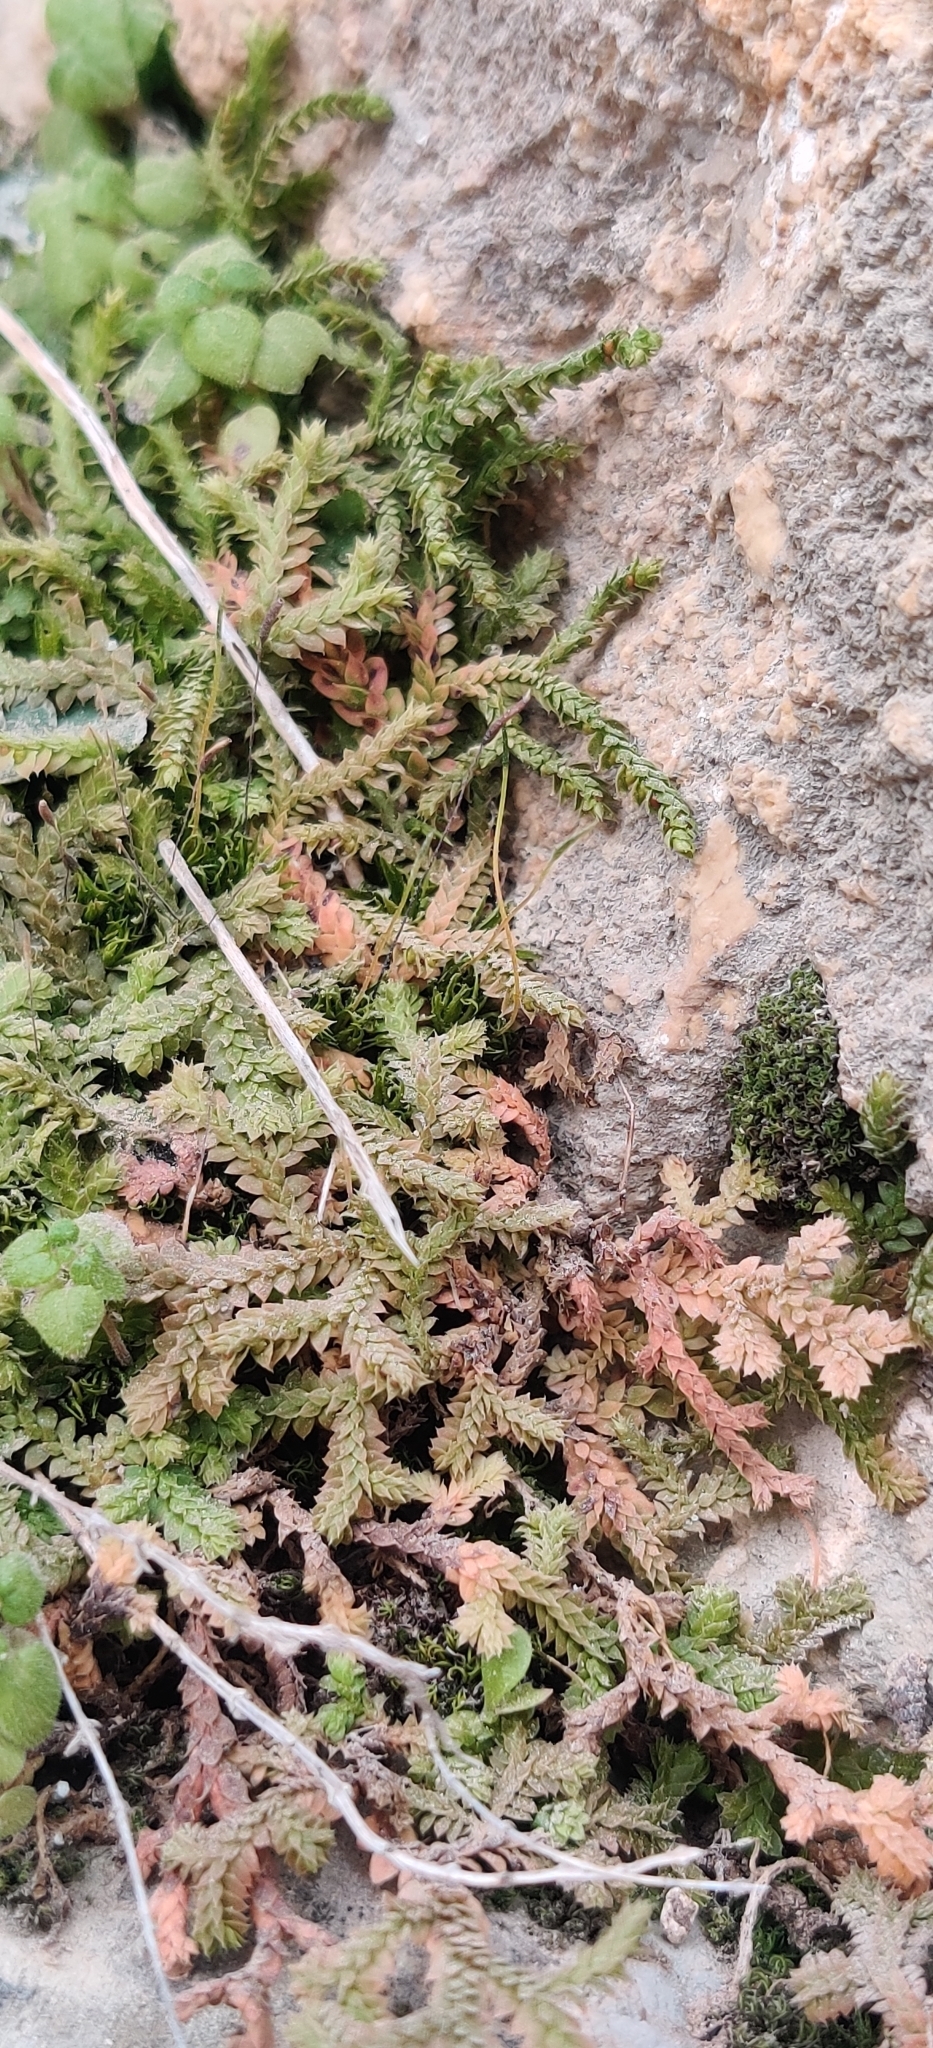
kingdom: Plantae
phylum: Tracheophyta
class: Lycopodiopsida
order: Selaginellales
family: Selaginellaceae
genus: Selaginella
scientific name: Selaginella denticulata
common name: Toothed-leaved clubmoss
